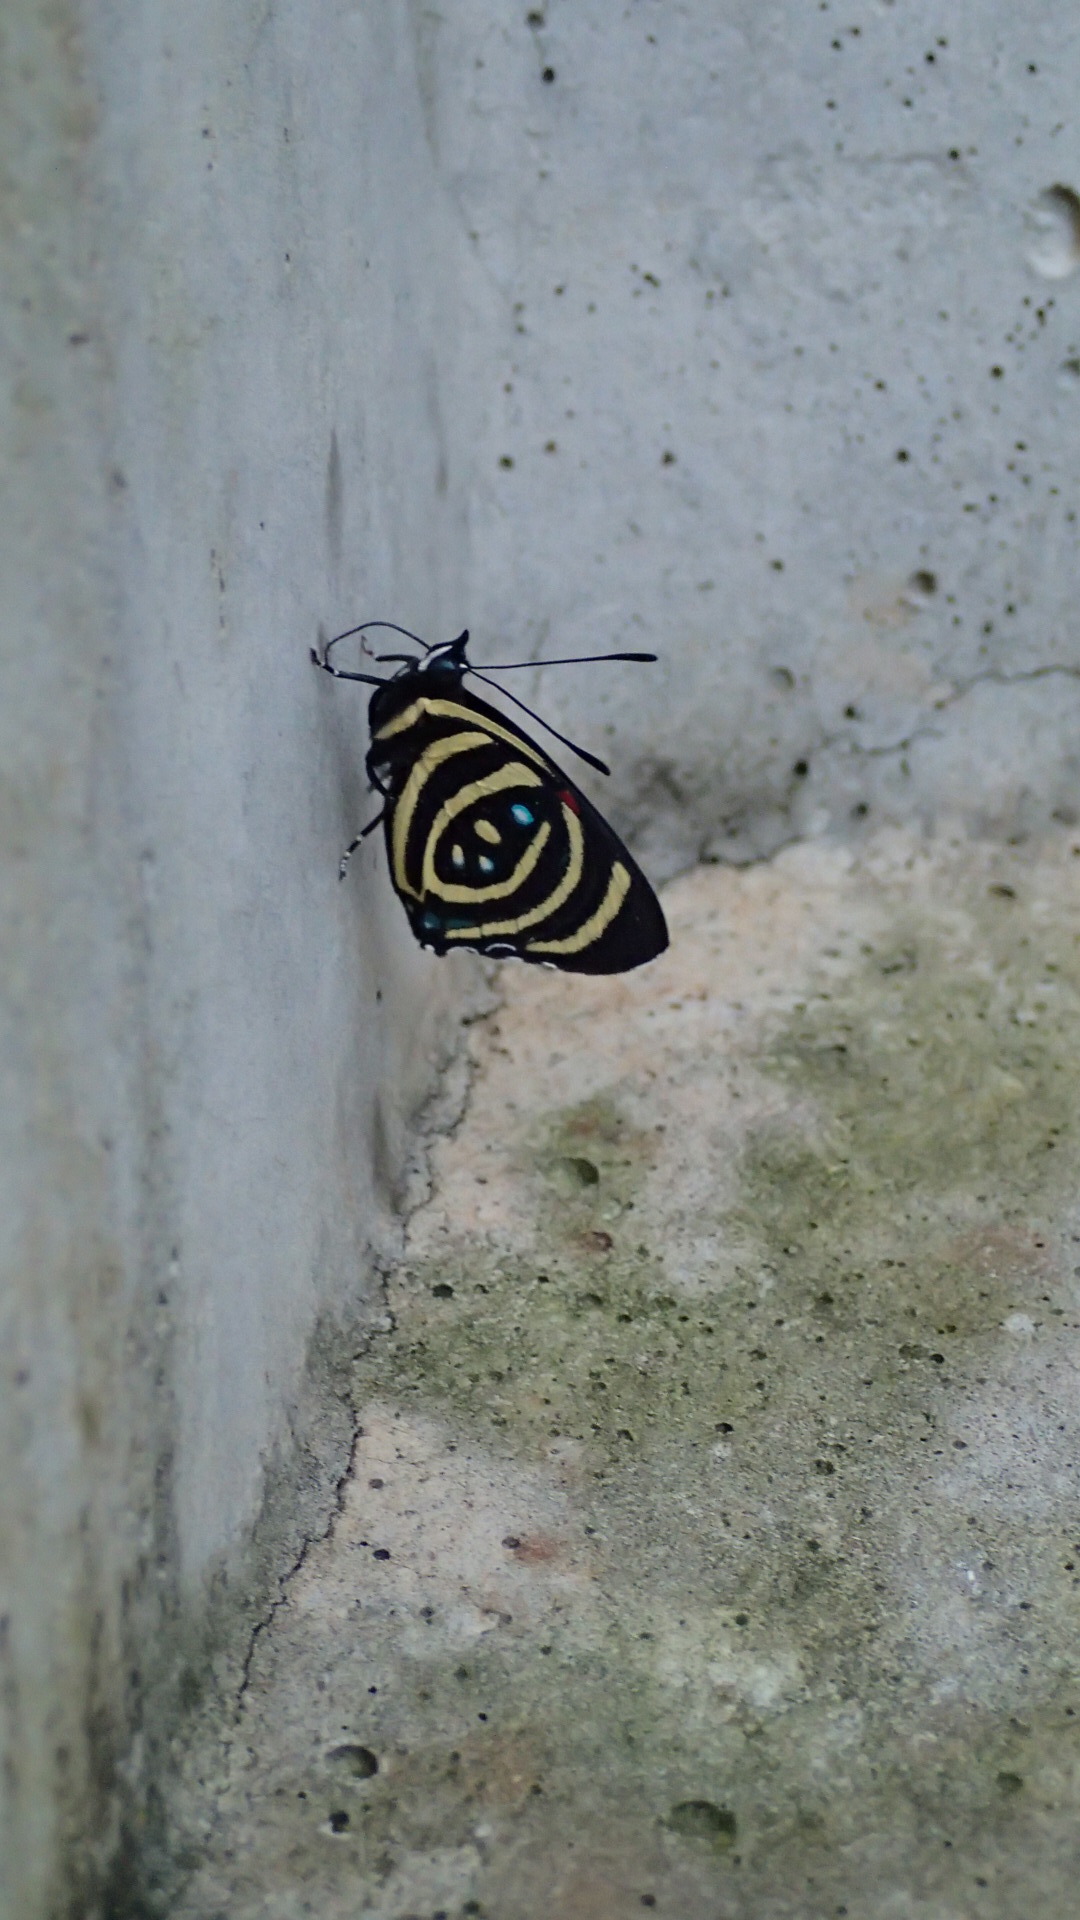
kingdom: Animalia
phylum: Arthropoda
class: Insecta
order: Lepidoptera
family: Nymphalidae
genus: Catagramma
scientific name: Catagramma Callicore hydaspes
